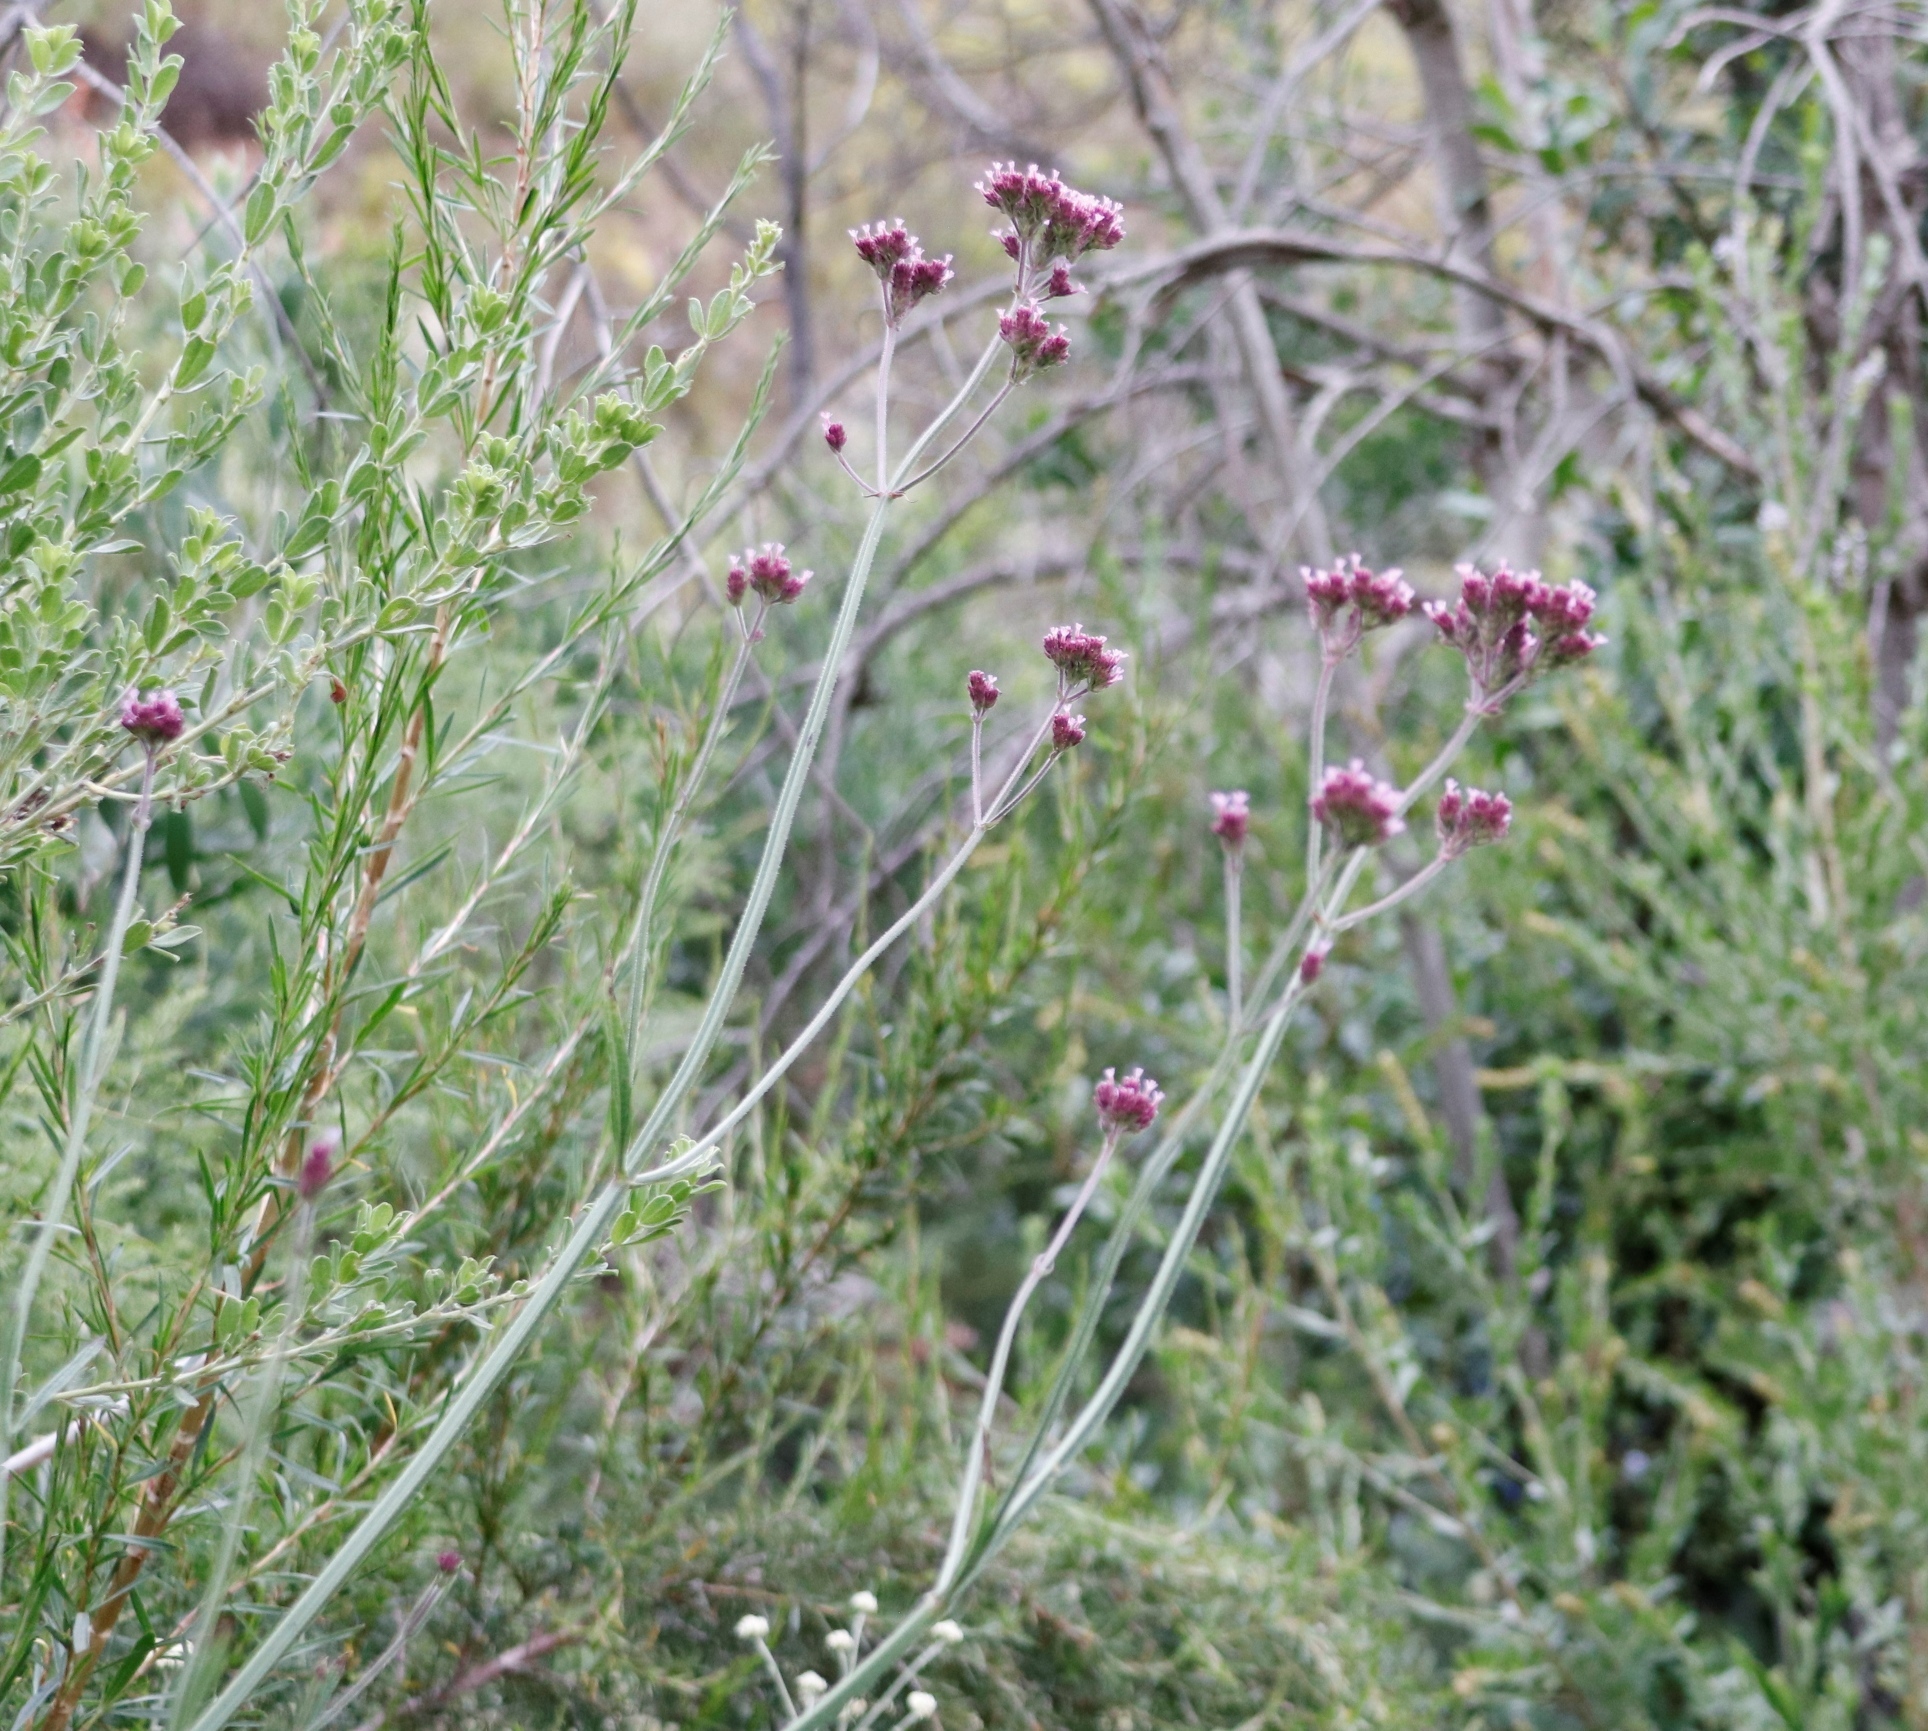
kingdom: Plantae
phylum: Tracheophyta
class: Magnoliopsida
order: Lamiales
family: Verbenaceae
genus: Verbena
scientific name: Verbena bonariensis
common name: Purpletop vervain
